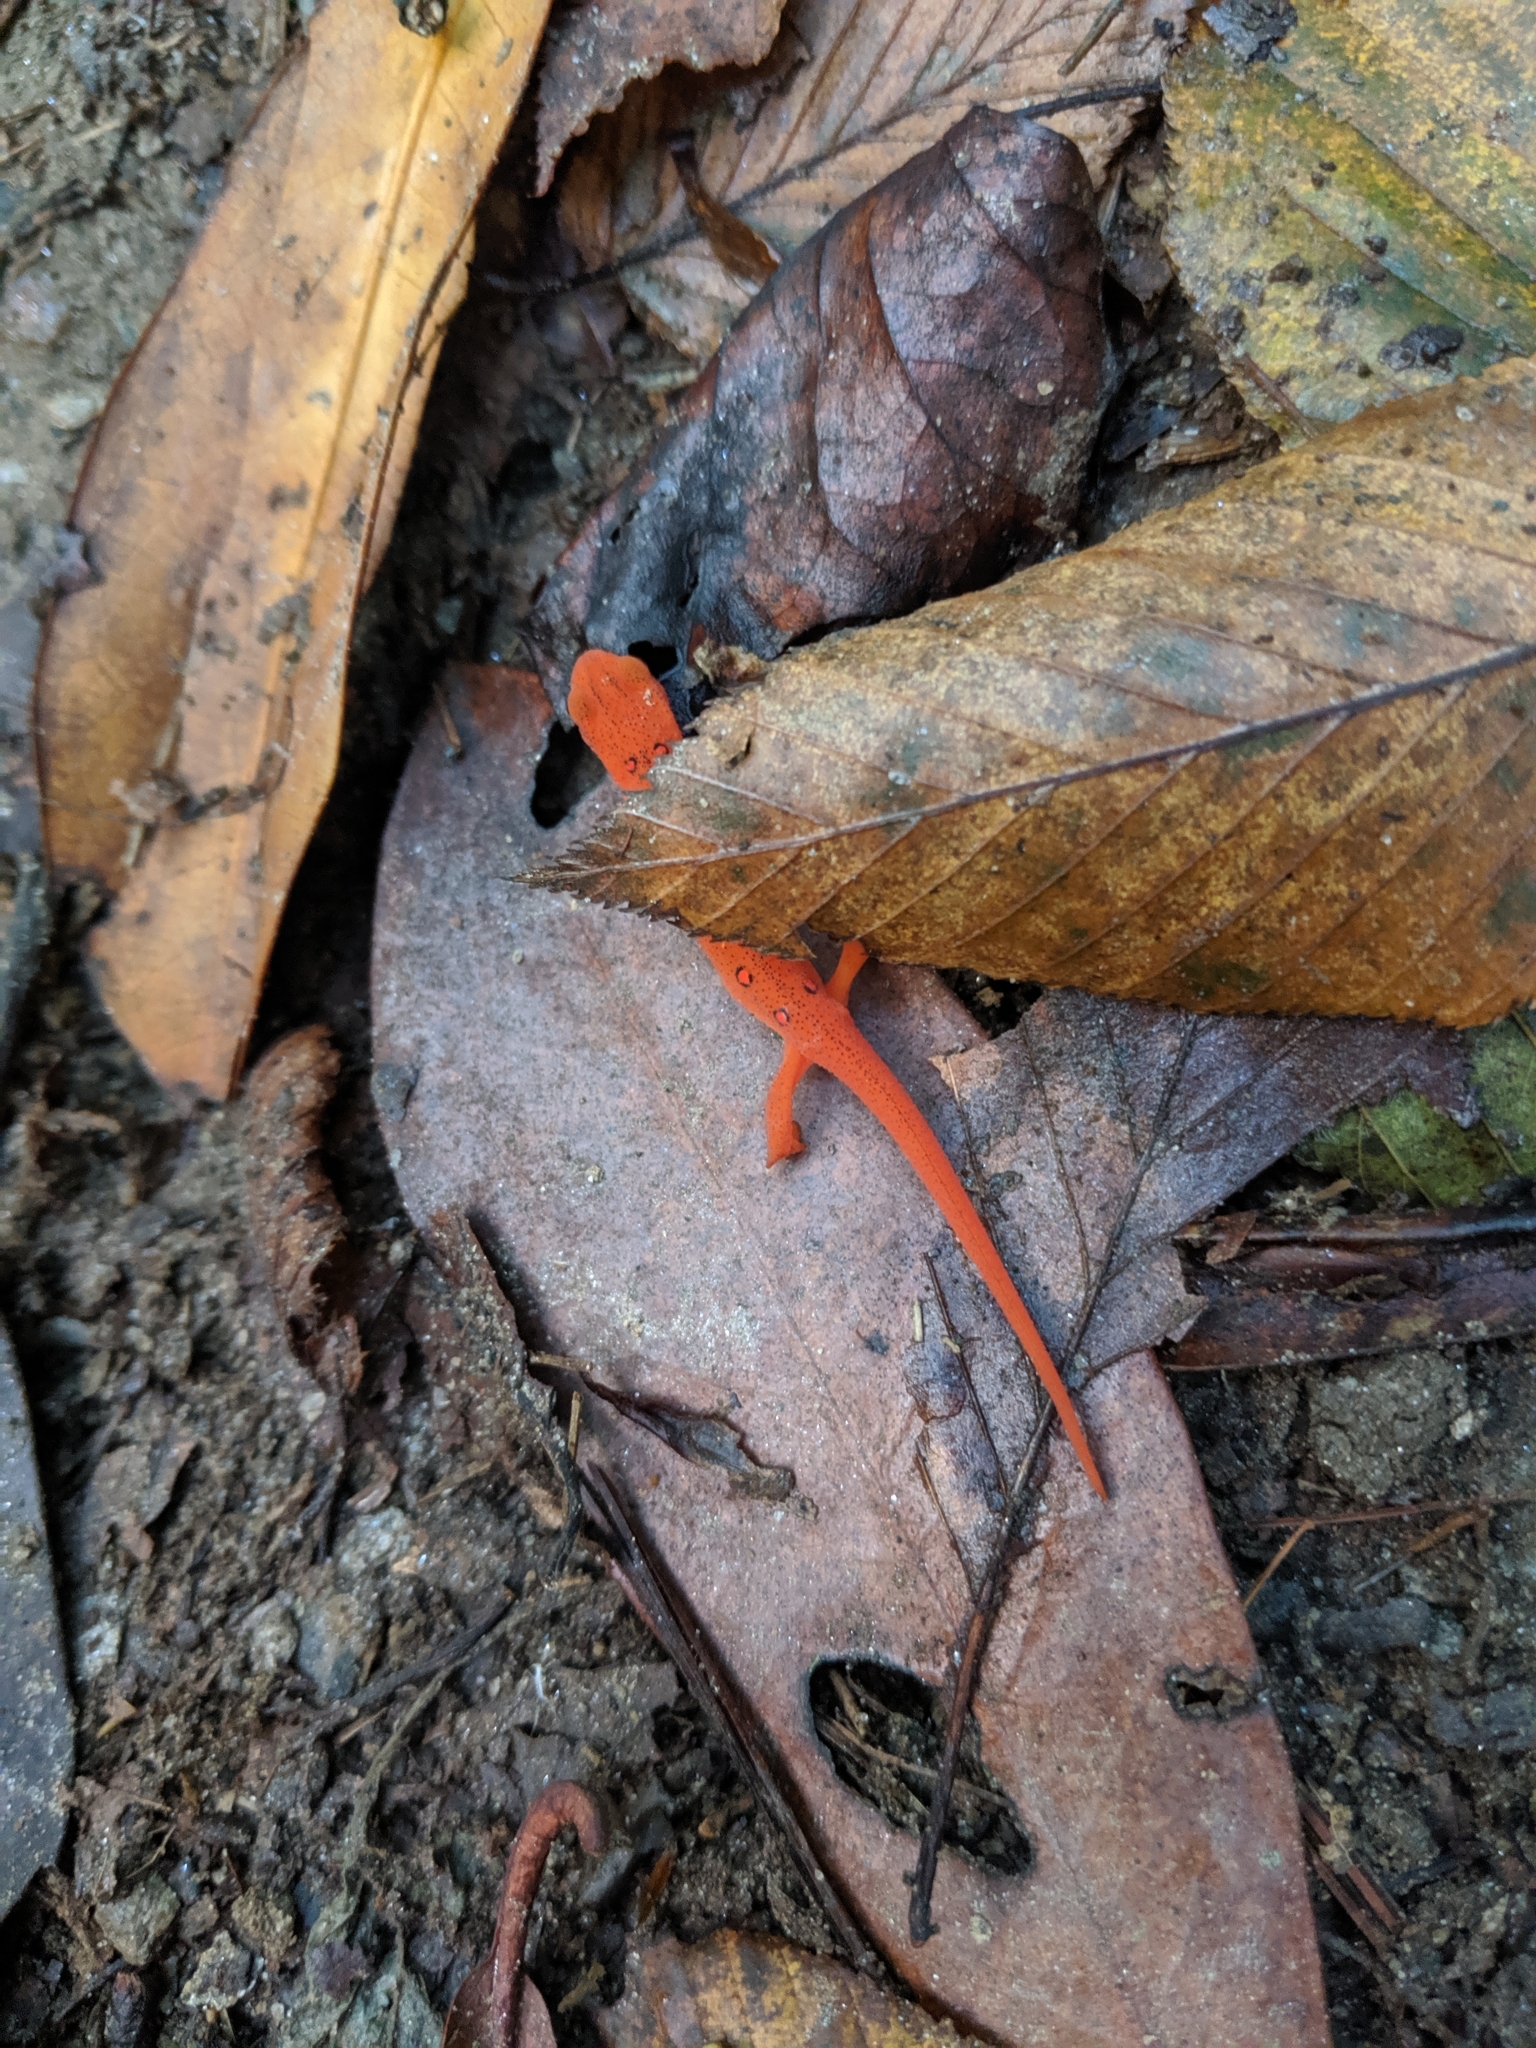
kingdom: Animalia
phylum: Chordata
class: Amphibia
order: Caudata
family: Salamandridae
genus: Notophthalmus
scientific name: Notophthalmus viridescens
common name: Eastern newt
